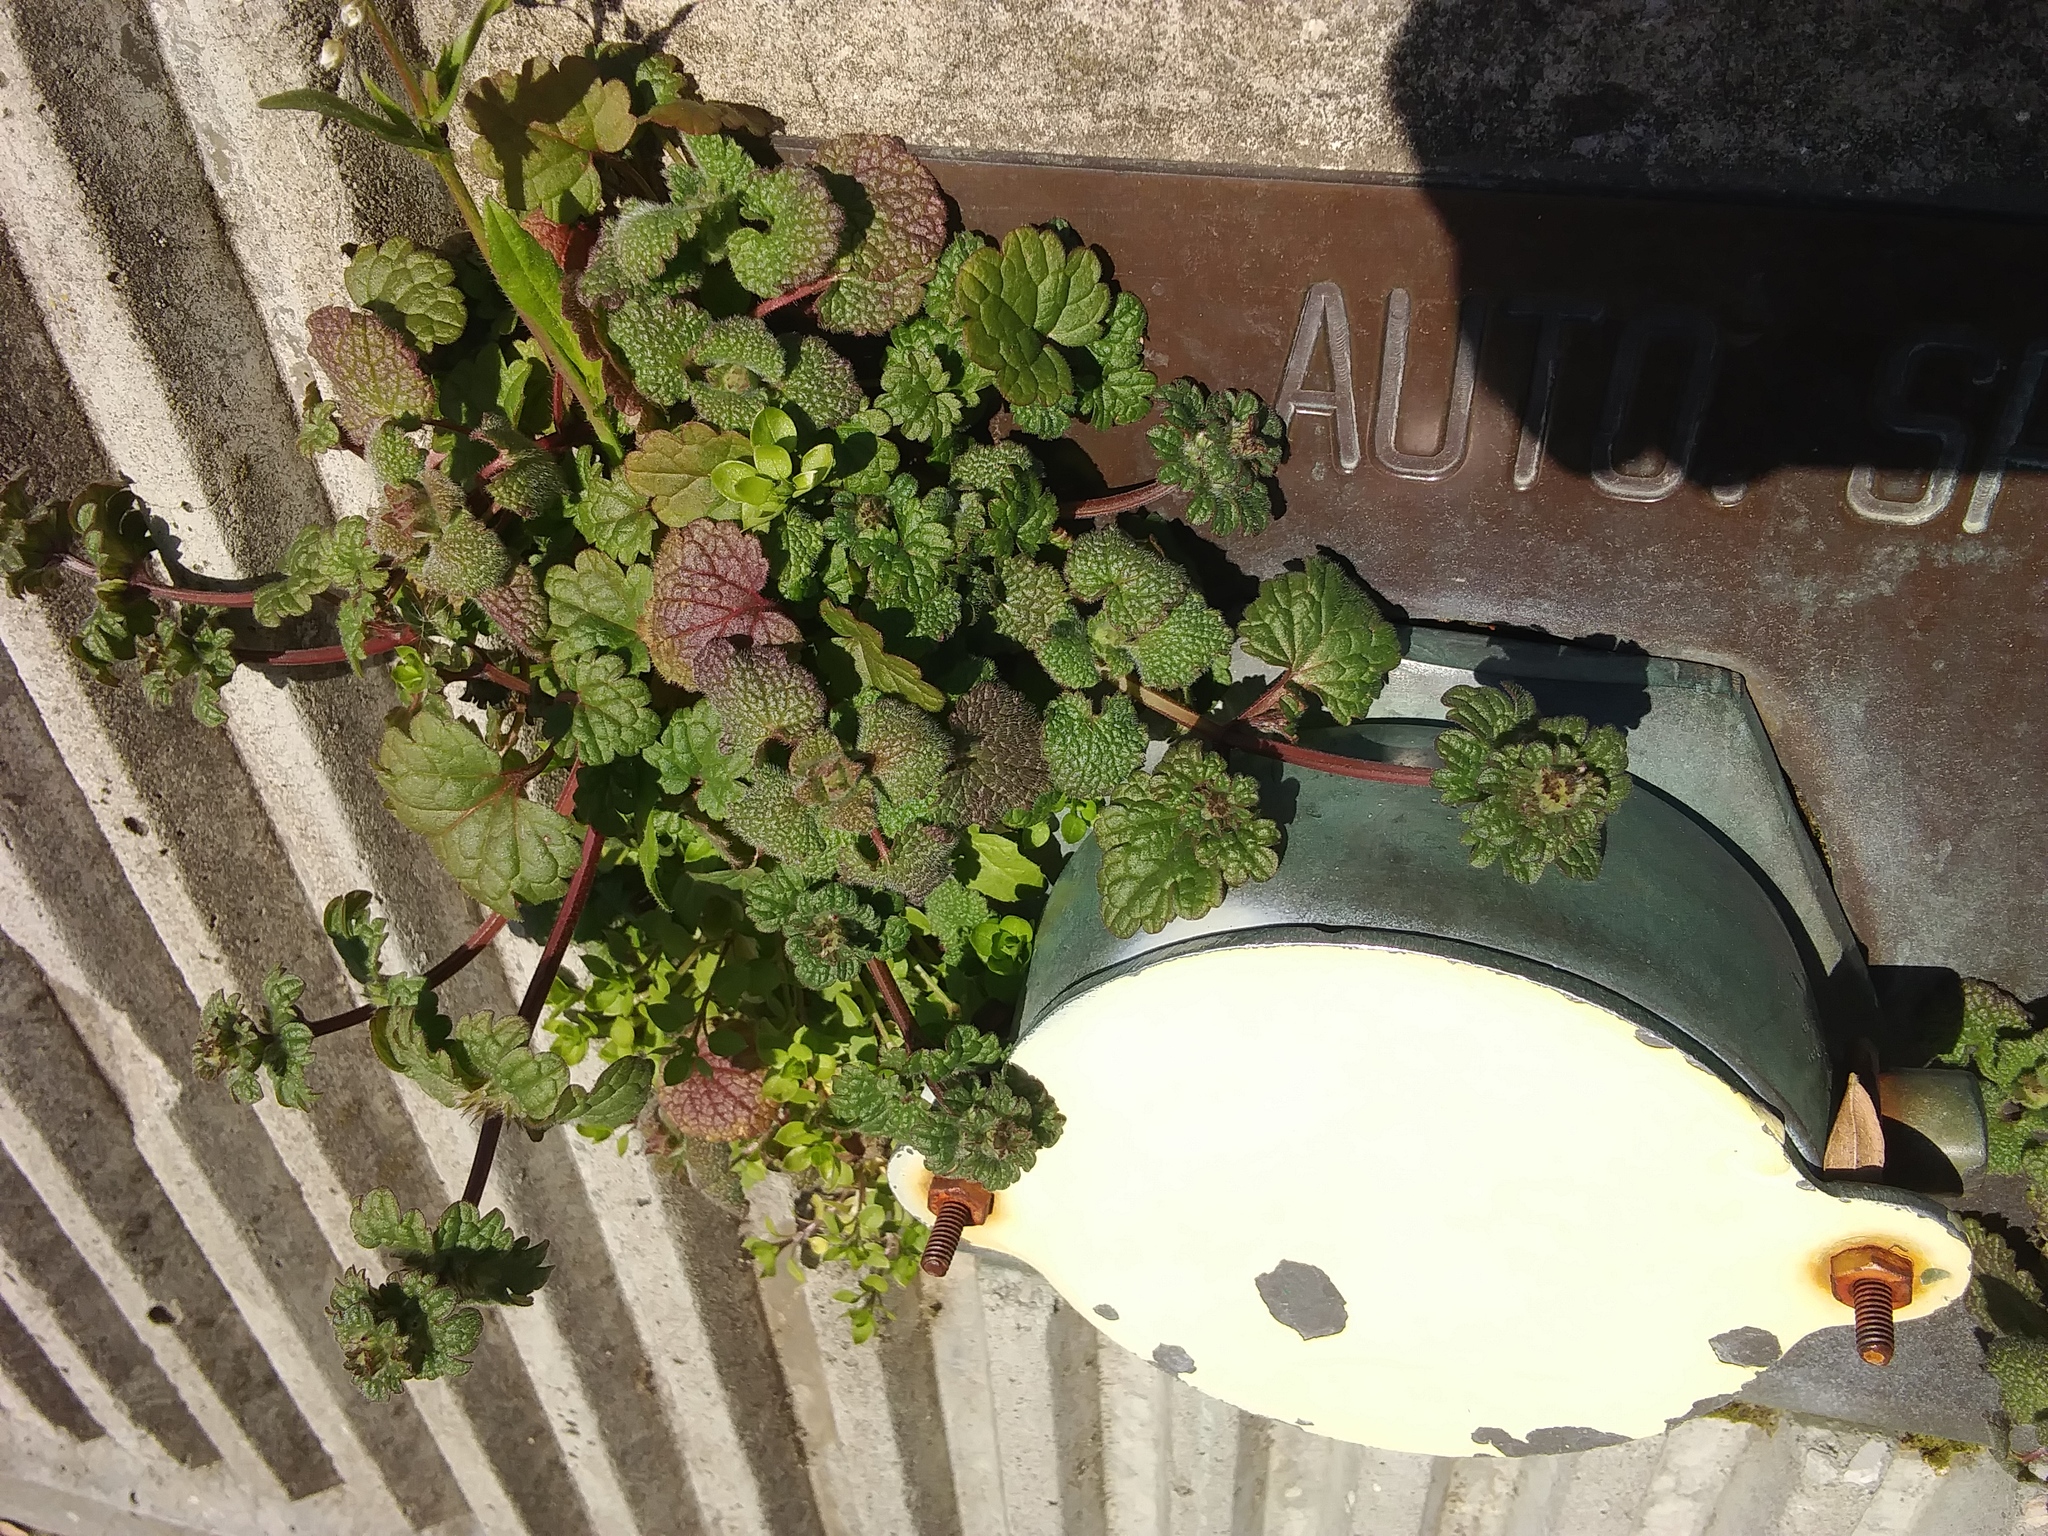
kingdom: Plantae
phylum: Tracheophyta
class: Magnoliopsida
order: Lamiales
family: Lamiaceae
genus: Lamium
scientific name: Lamium amplexicaule
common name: Henbit dead-nettle
